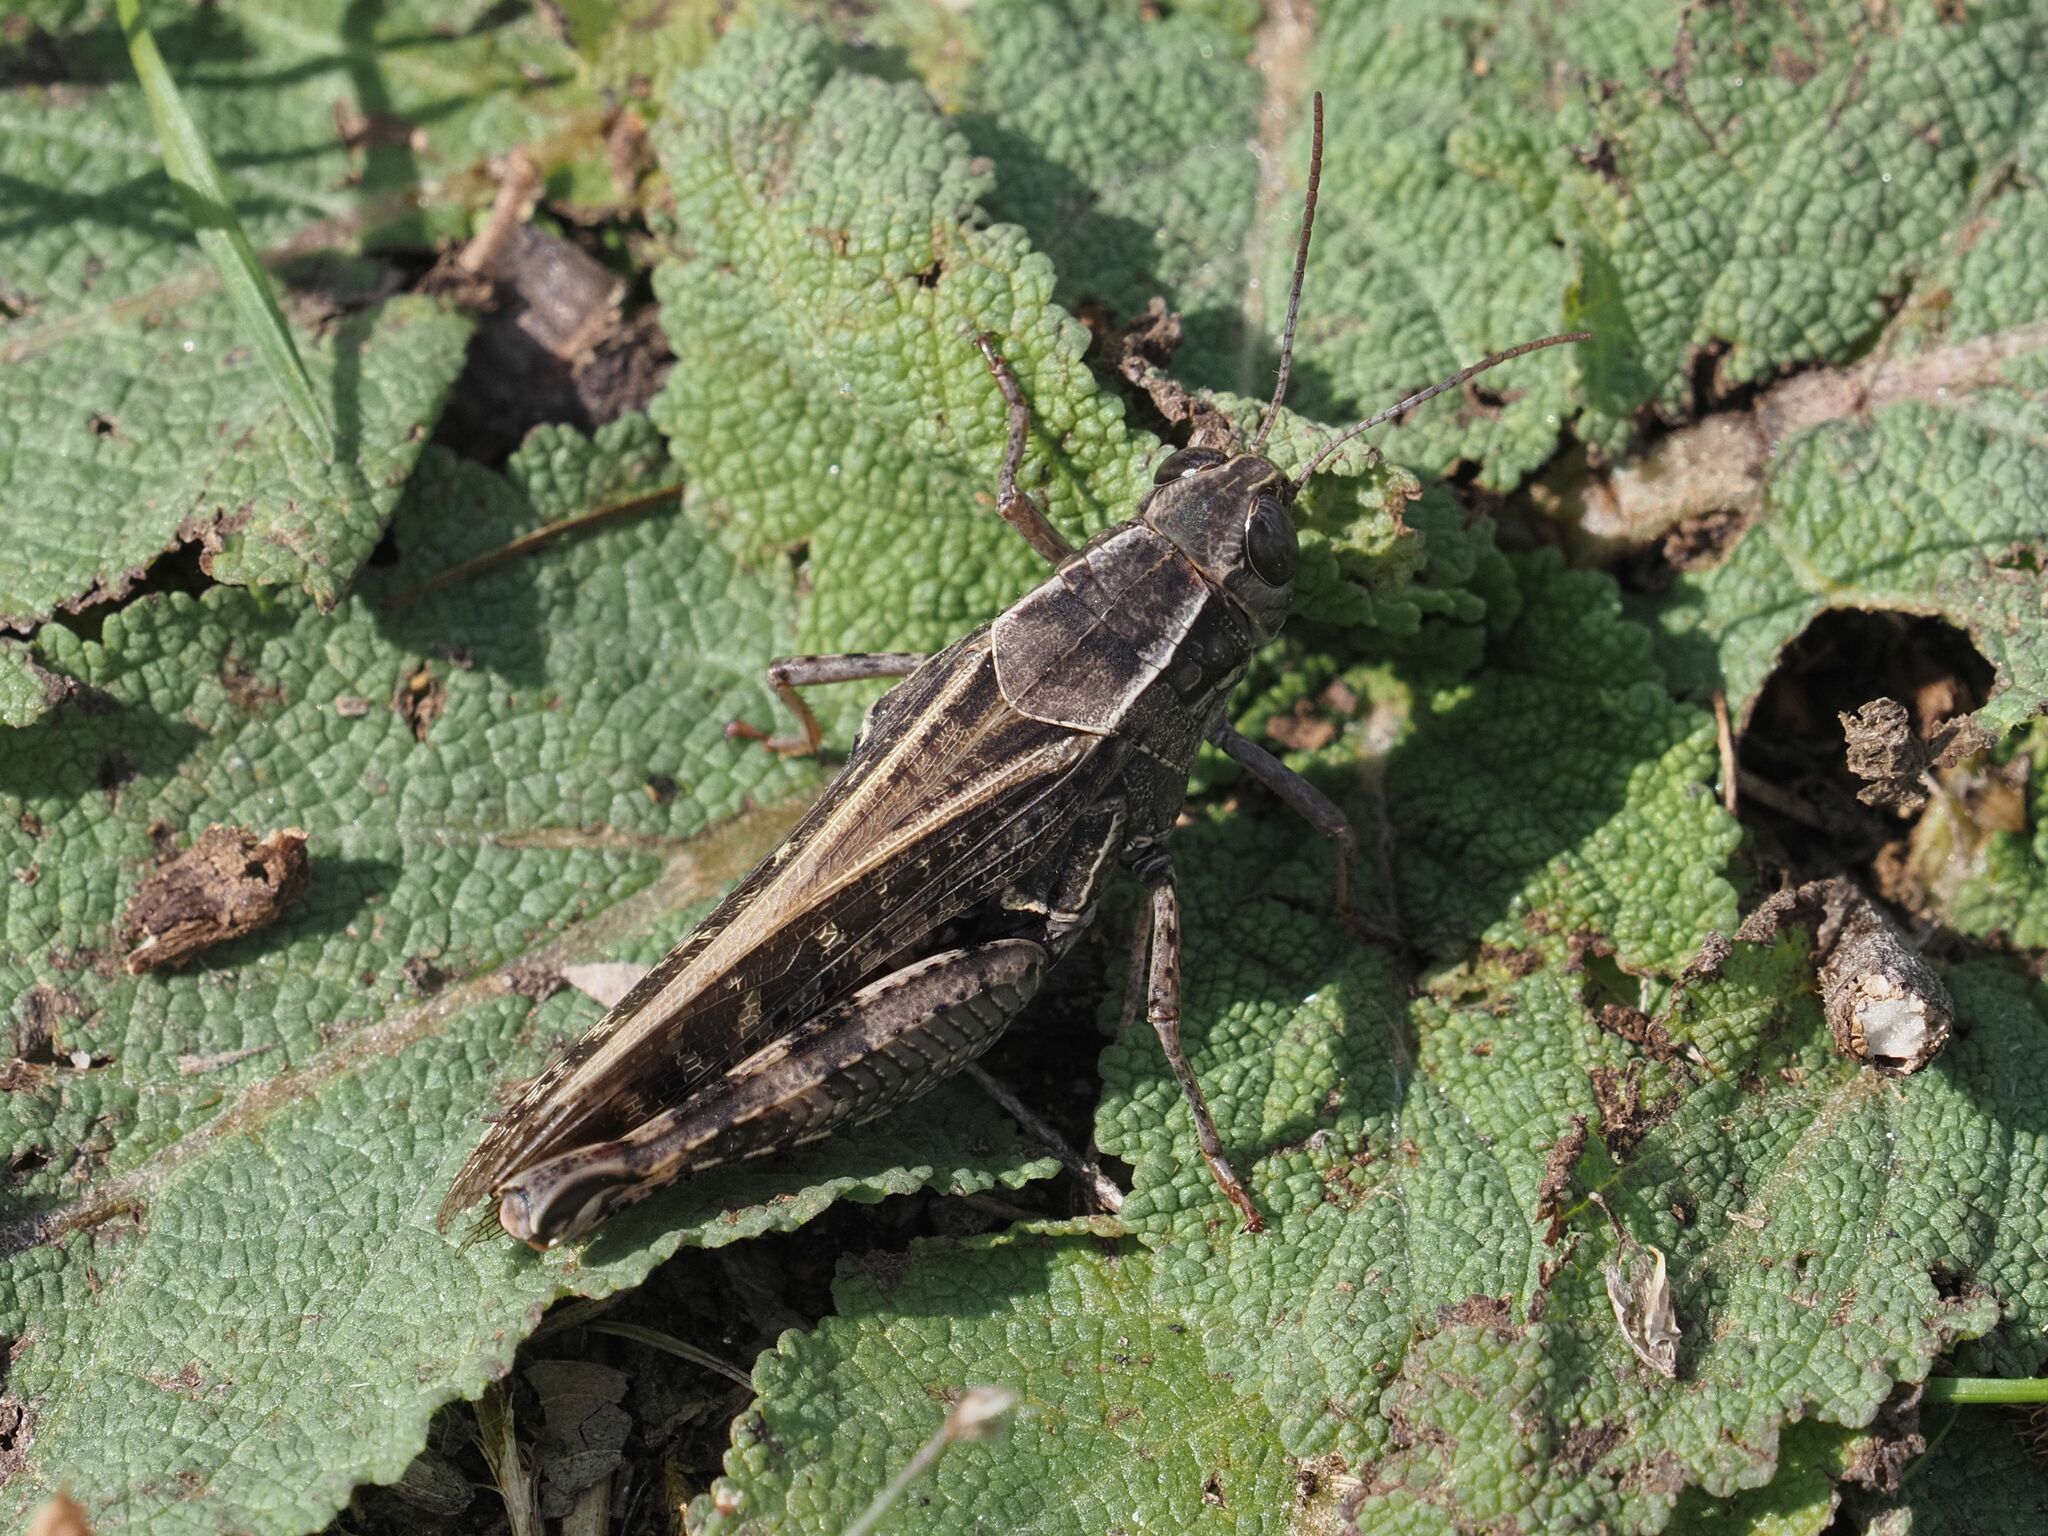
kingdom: Animalia
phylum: Arthropoda
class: Insecta
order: Orthoptera
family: Acrididae
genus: Calliptamus
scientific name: Calliptamus italicus
